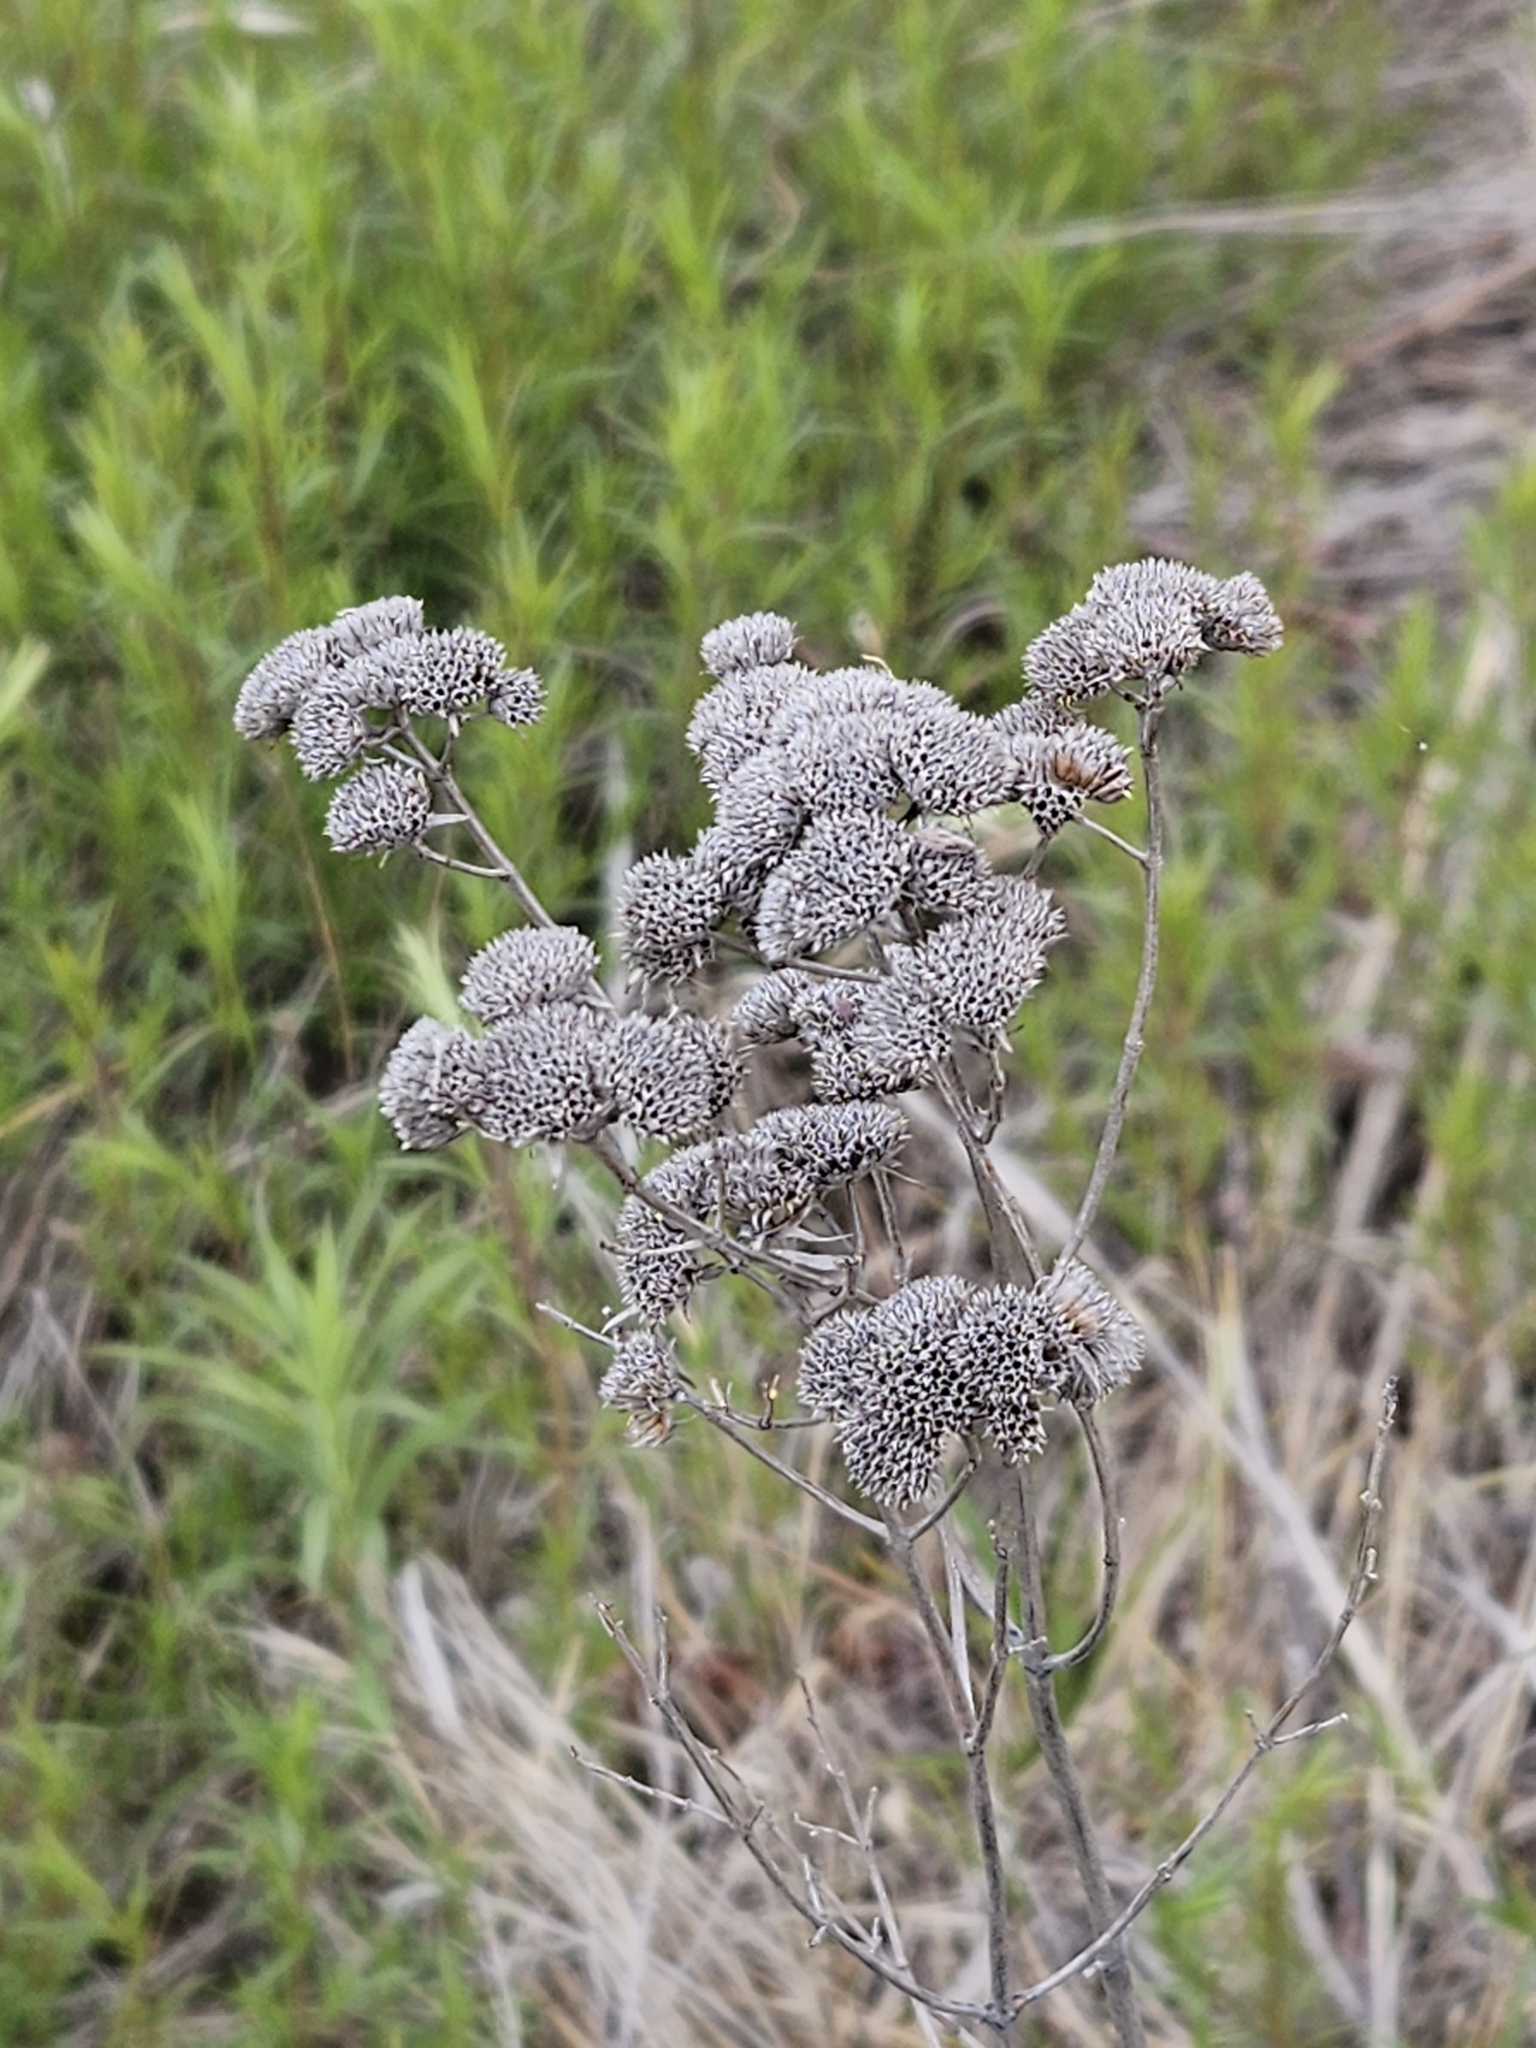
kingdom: Plantae
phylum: Tracheophyta
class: Magnoliopsida
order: Lamiales
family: Lamiaceae
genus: Pycnanthemum
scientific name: Pycnanthemum tenuifolium
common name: Narrow-leaf mountain-mint
